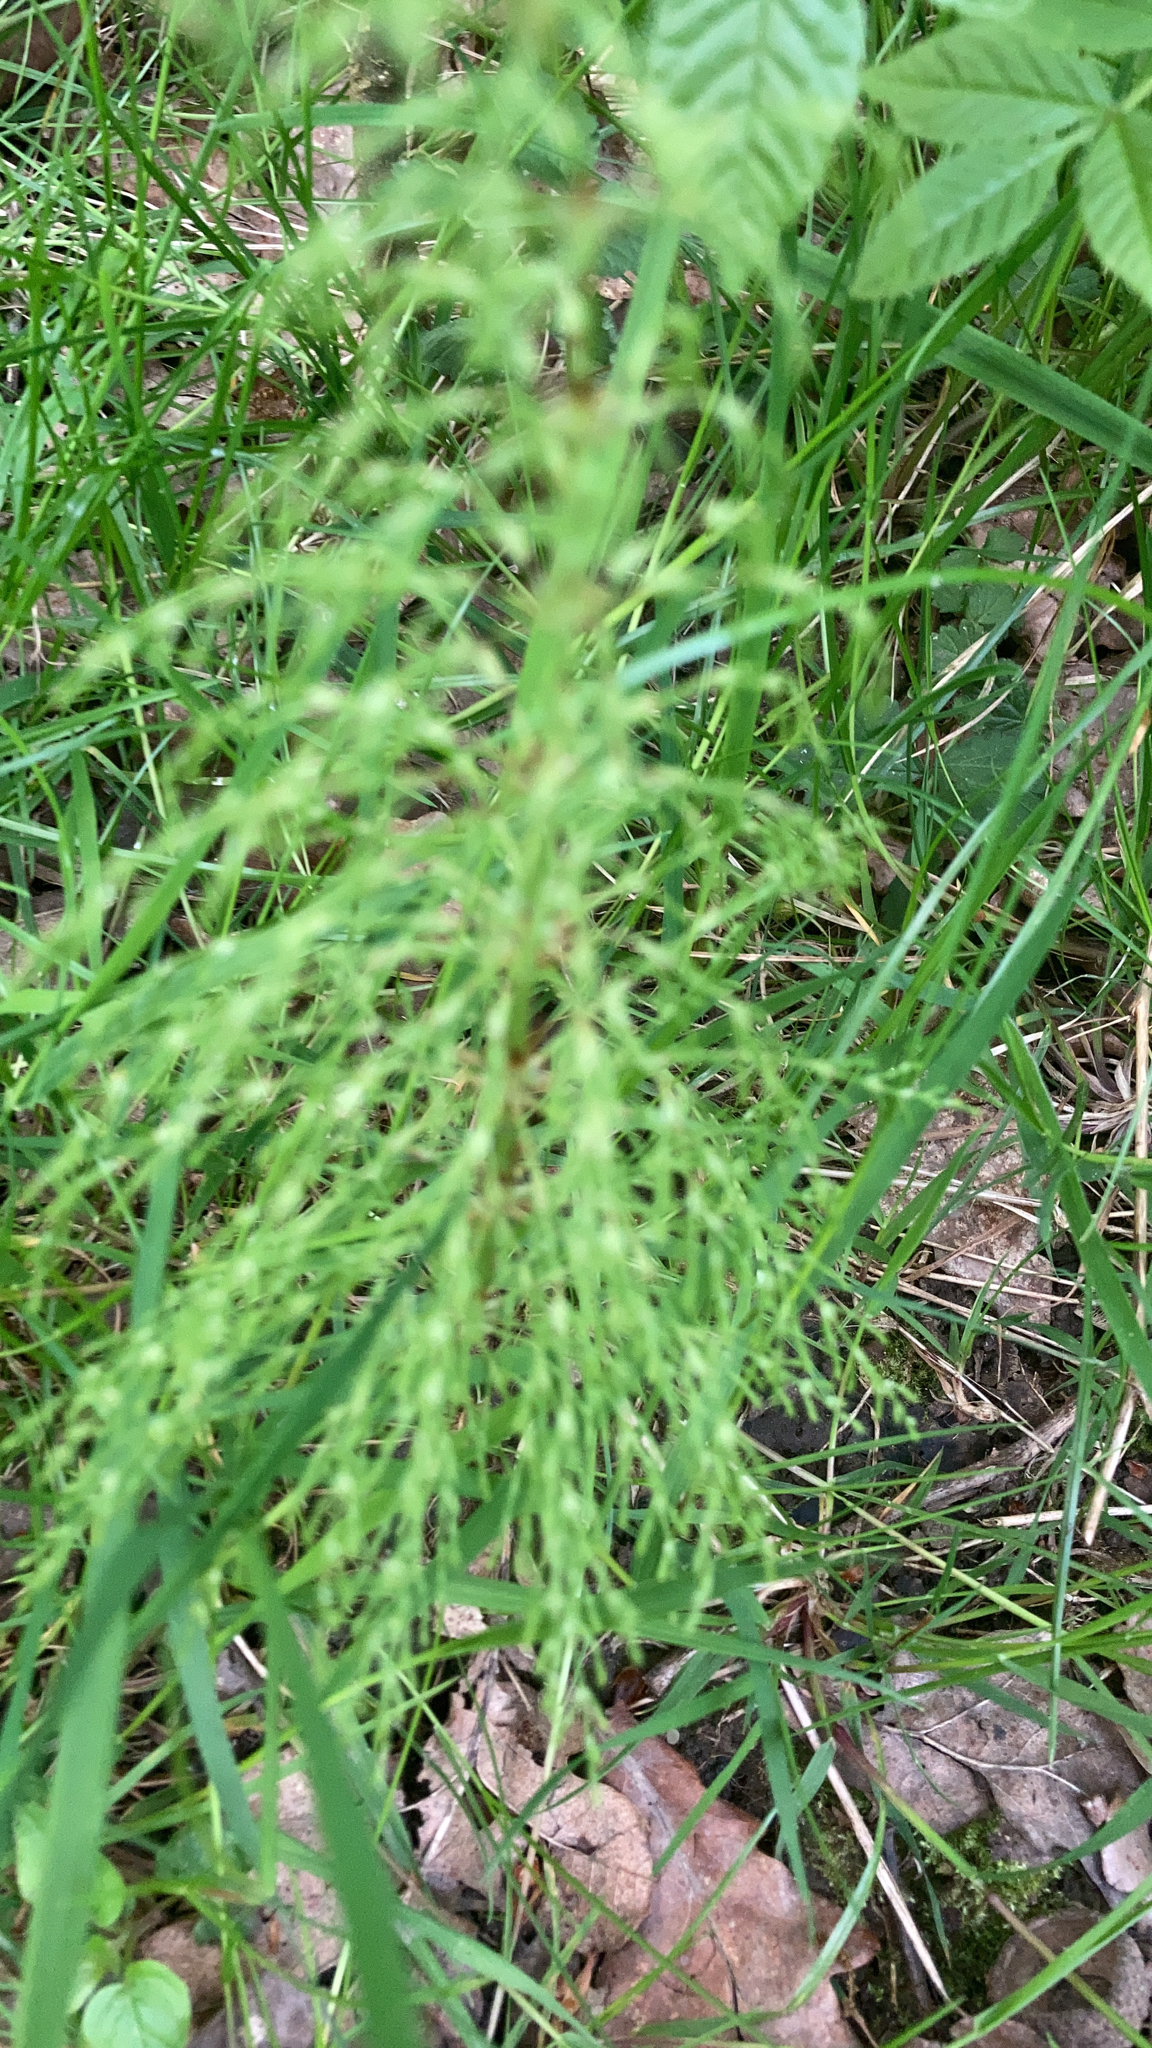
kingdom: Plantae
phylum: Tracheophyta
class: Polypodiopsida
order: Equisetales
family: Equisetaceae
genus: Equisetum
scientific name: Equisetum sylvaticum
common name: Wood horsetail
